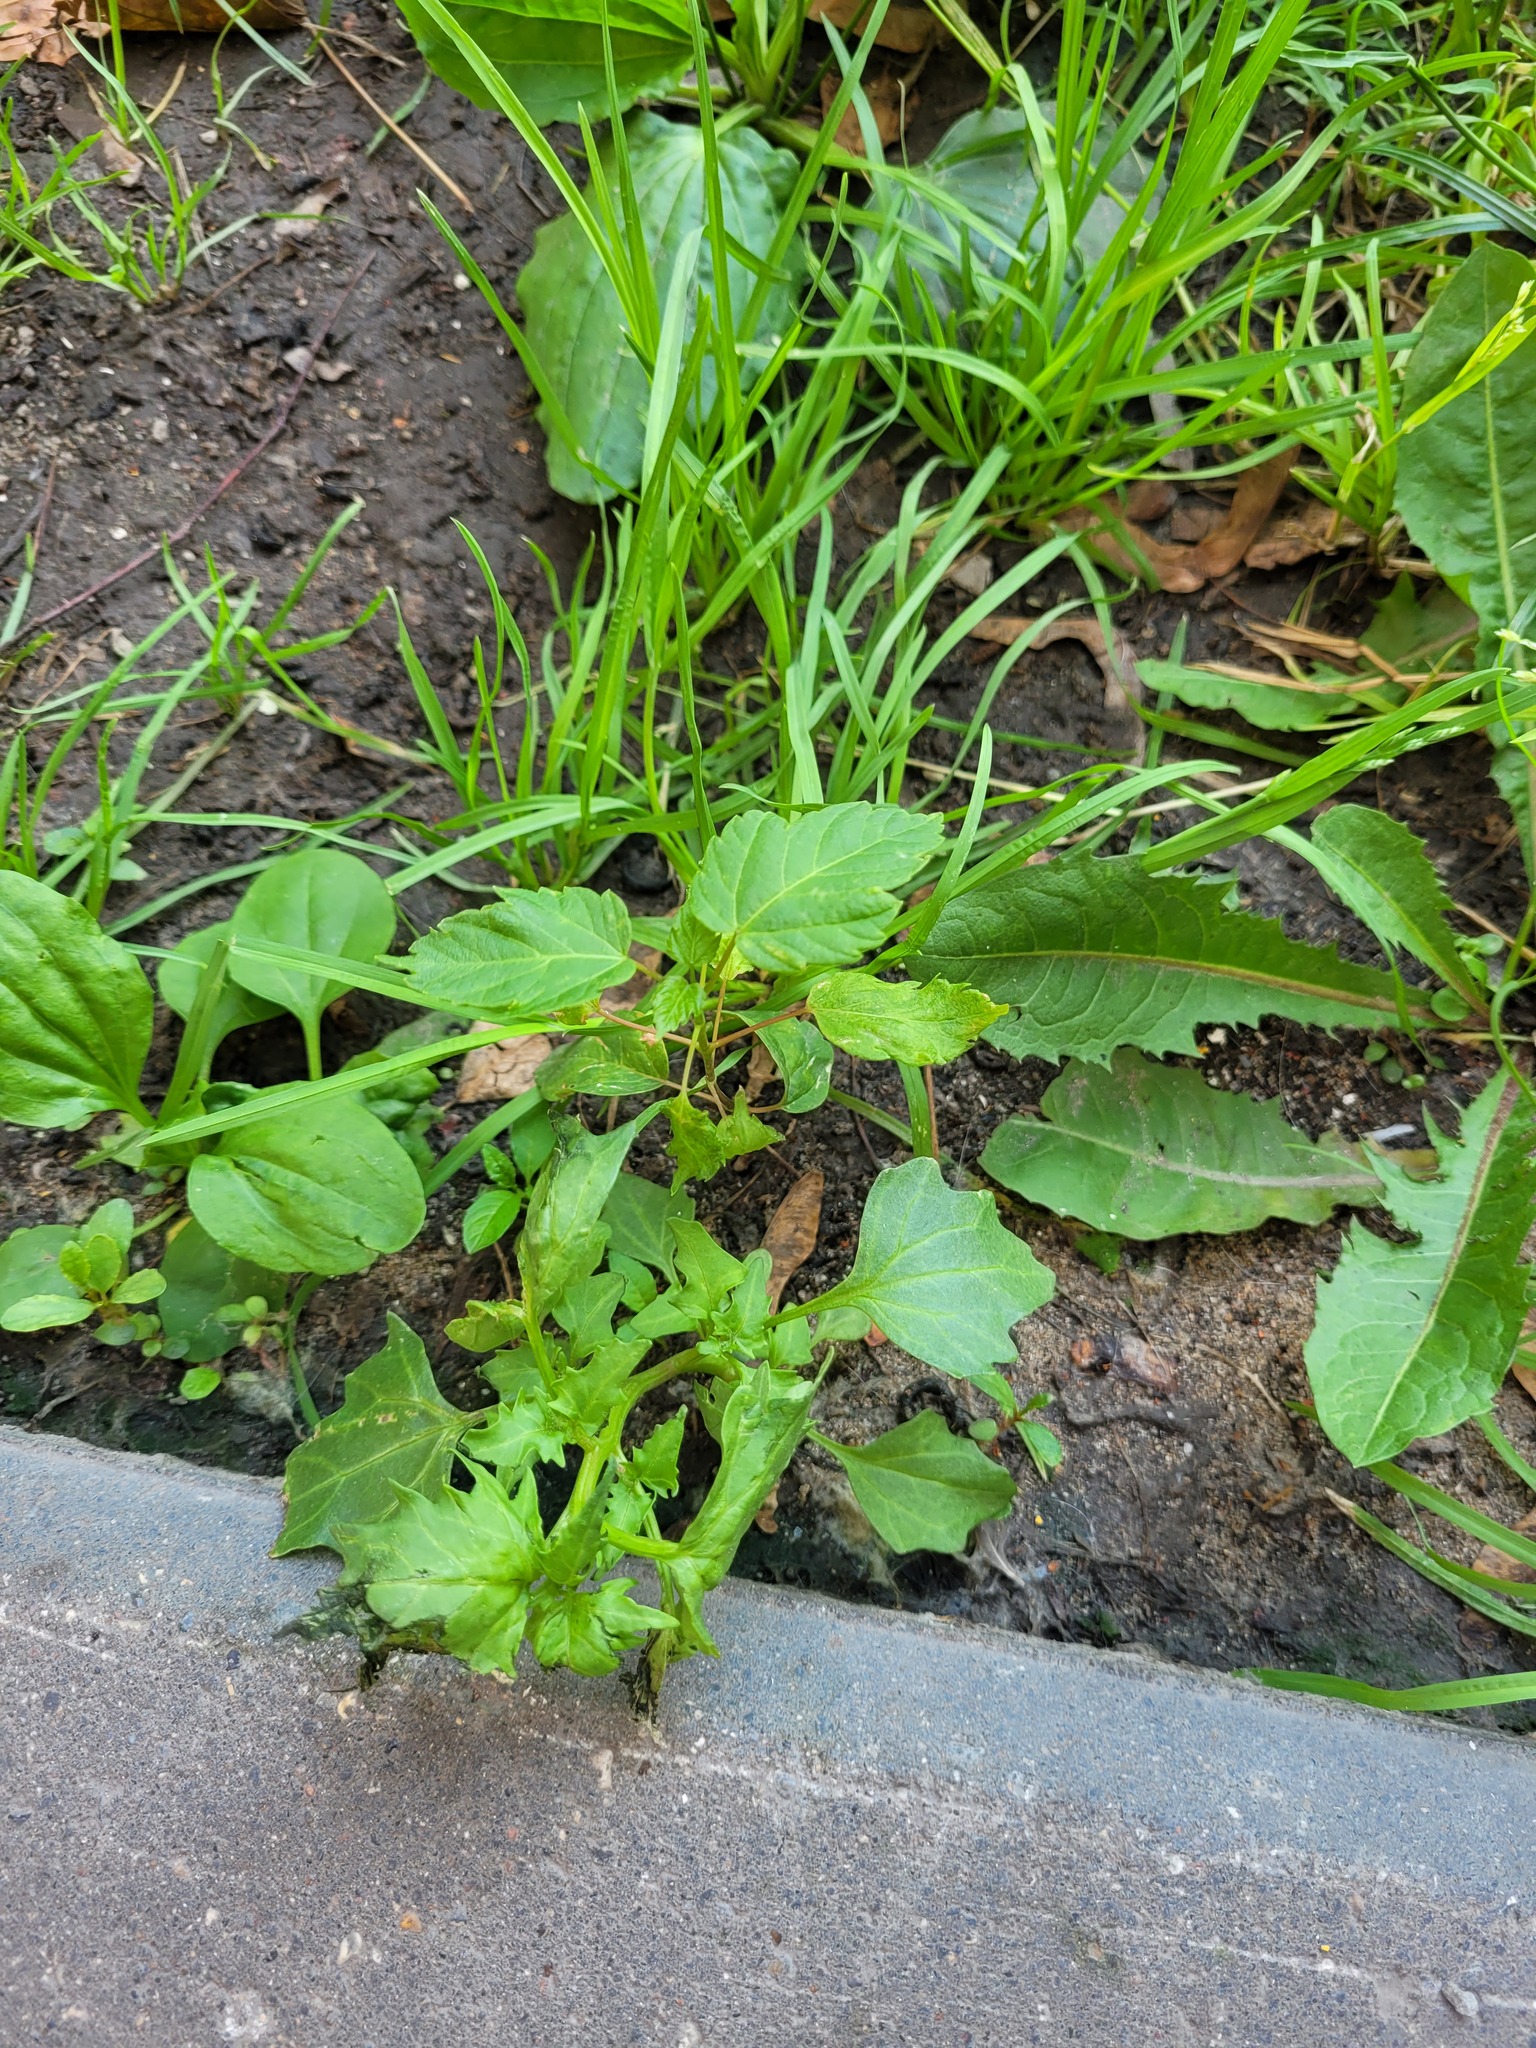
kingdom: Plantae
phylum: Tracheophyta
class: Magnoliopsida
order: Caryophyllales
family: Amaranthaceae
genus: Oxybasis
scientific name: Oxybasis rubra
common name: Red goosefoot
